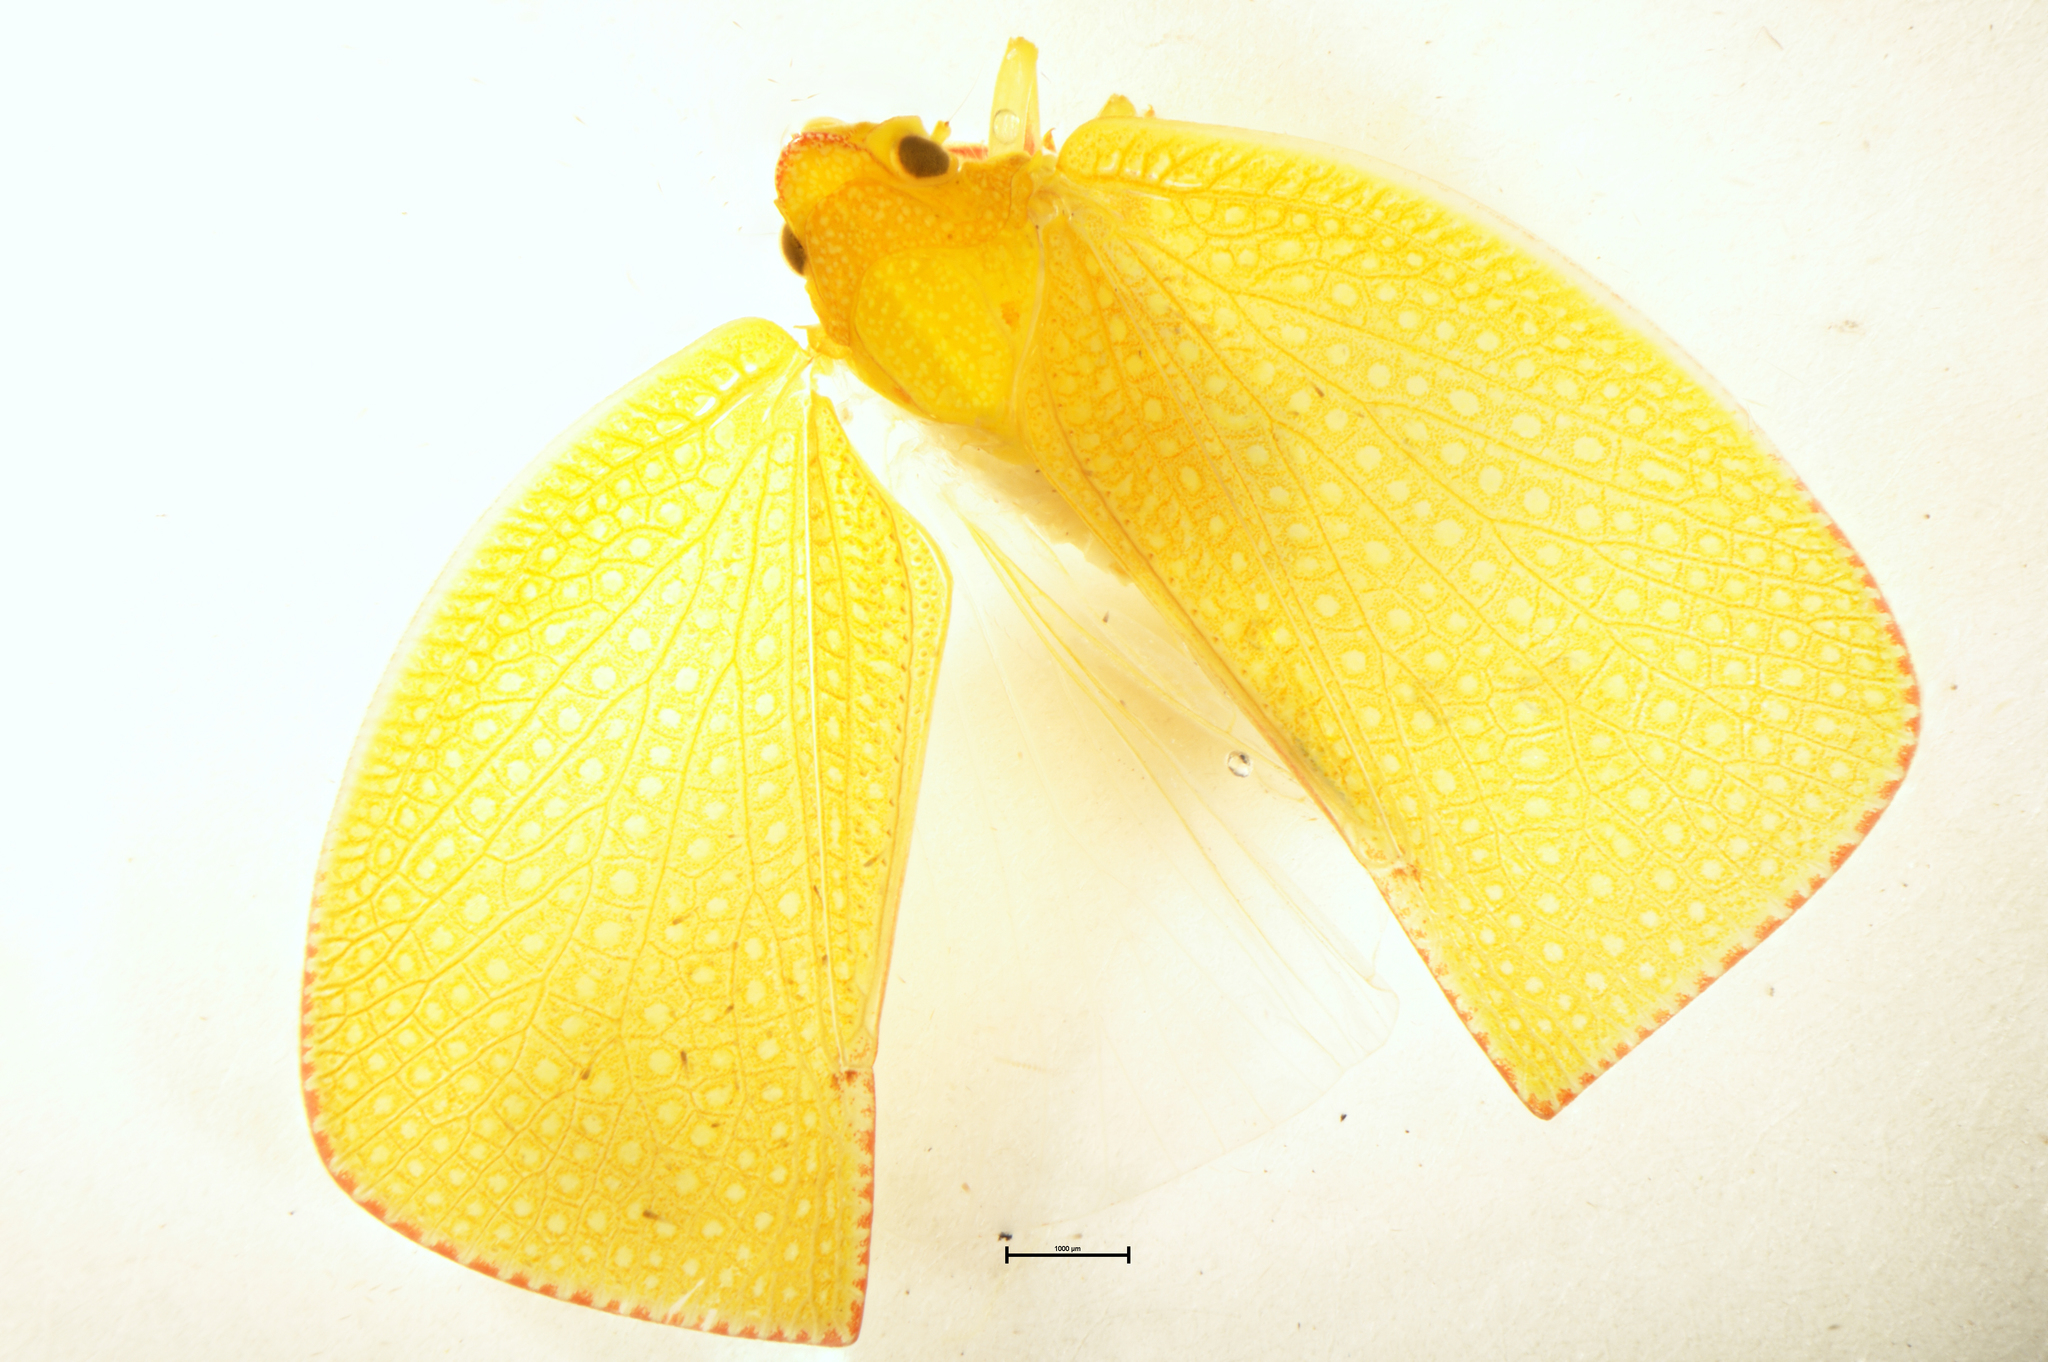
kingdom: Animalia
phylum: Arthropoda
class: Insecta
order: Hemiptera
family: Flatidae
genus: Siphanta
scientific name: Siphanta acuta
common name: Torpedo bug
